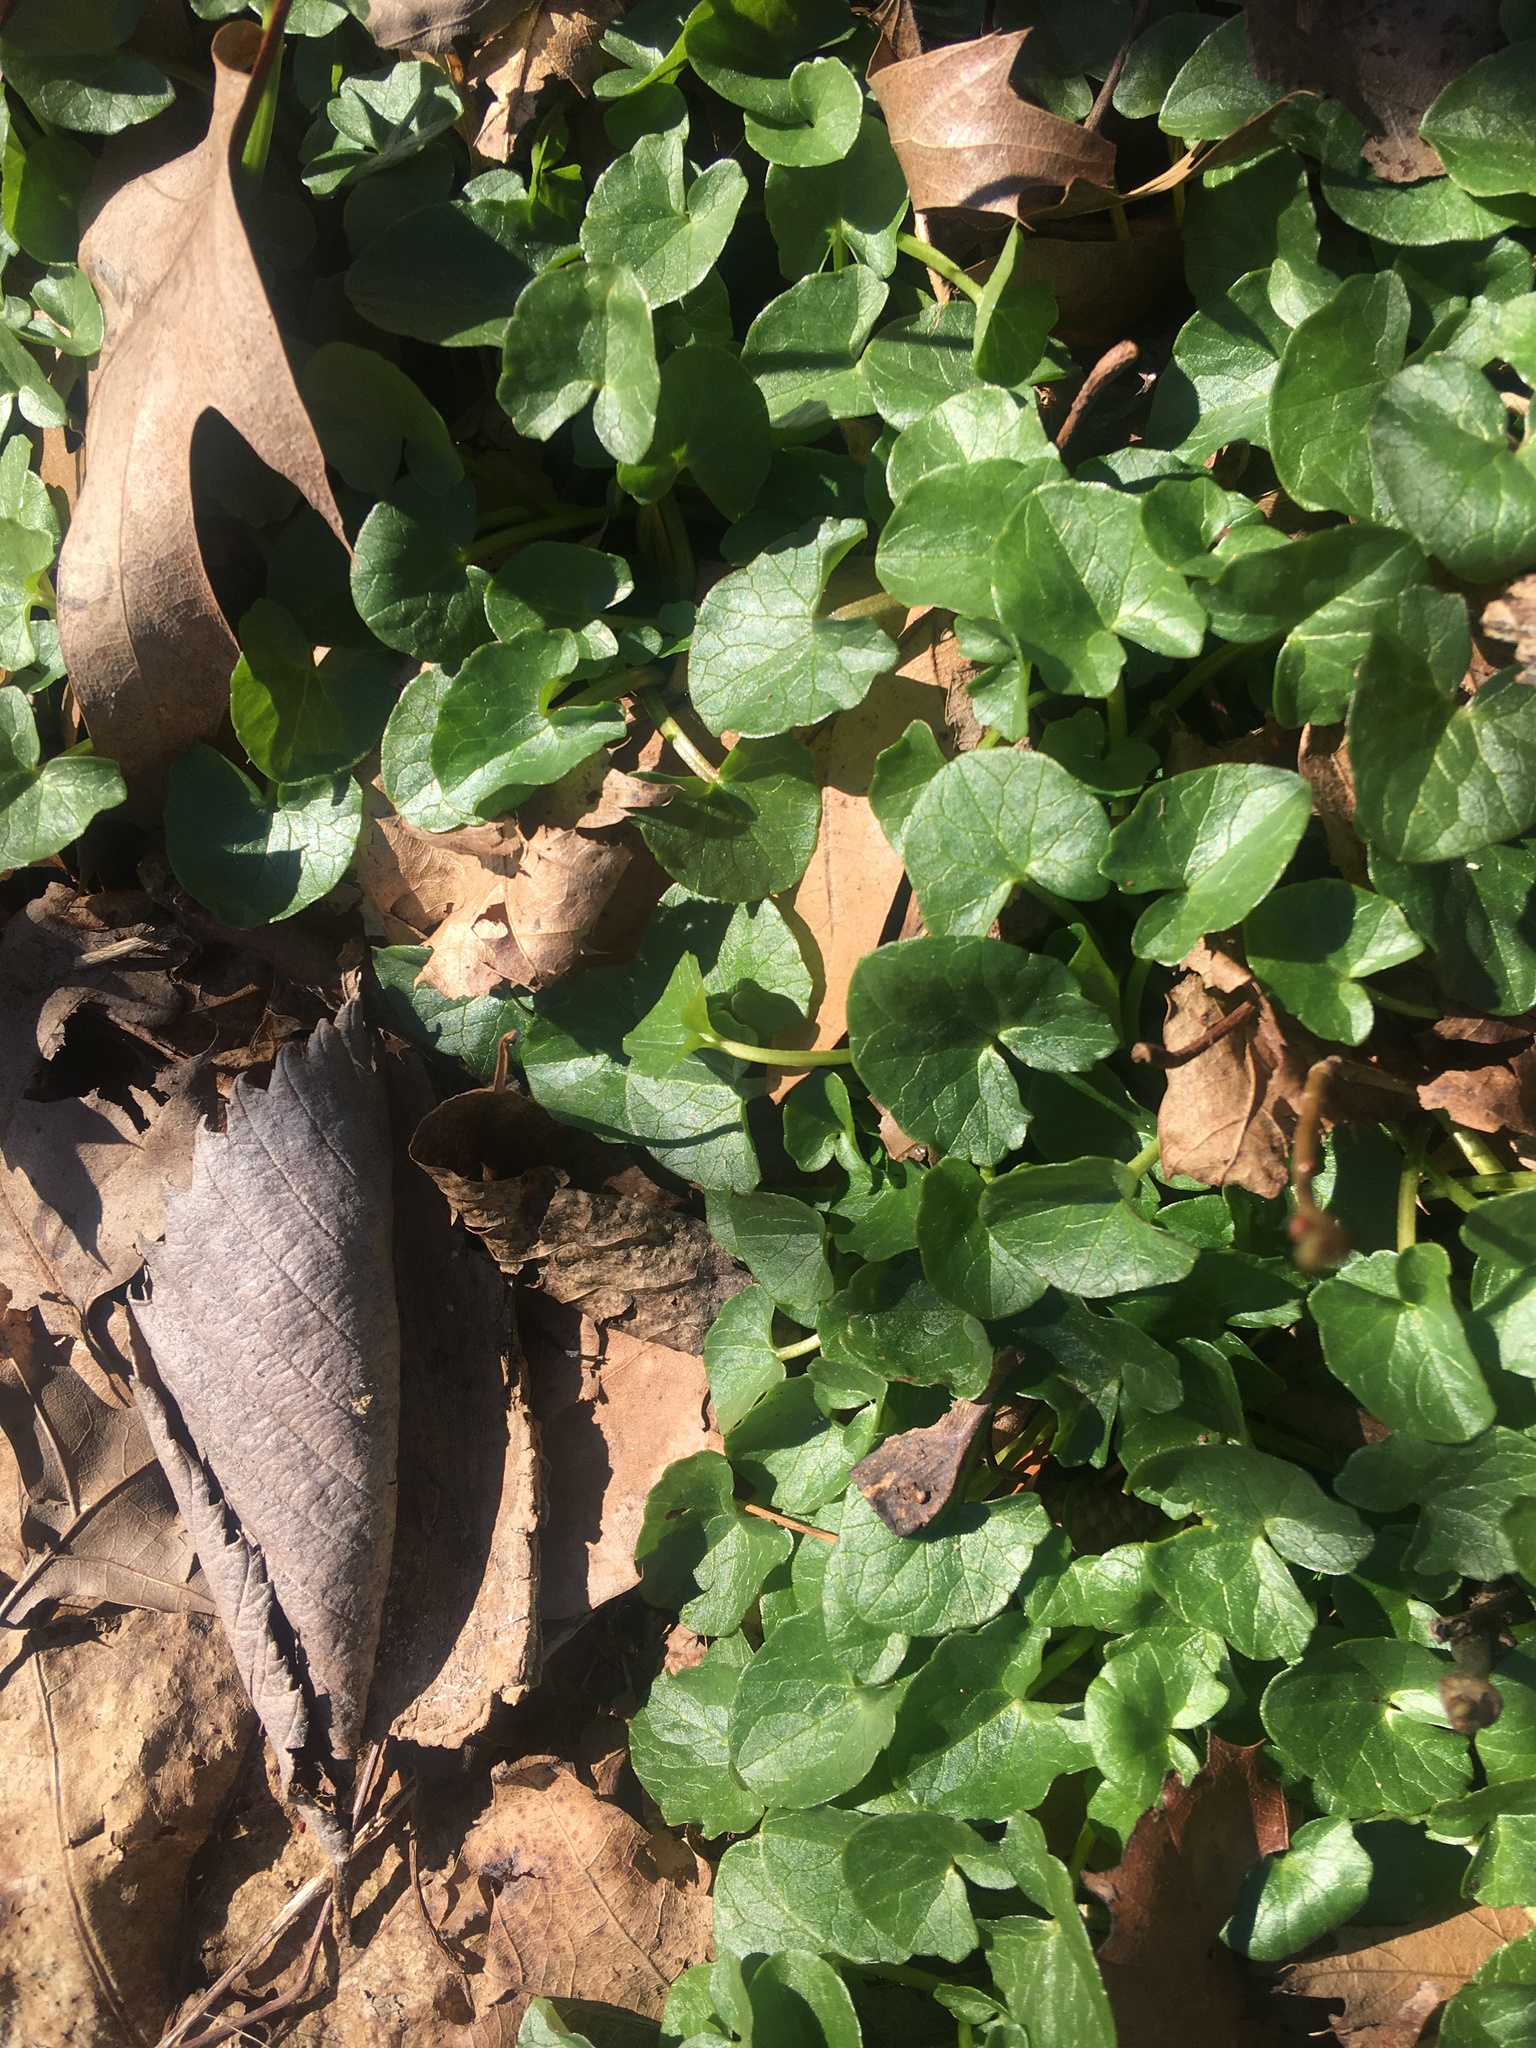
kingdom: Plantae
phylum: Tracheophyta
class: Magnoliopsida
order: Ranunculales
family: Ranunculaceae
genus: Ficaria
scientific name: Ficaria verna
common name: Lesser celandine
